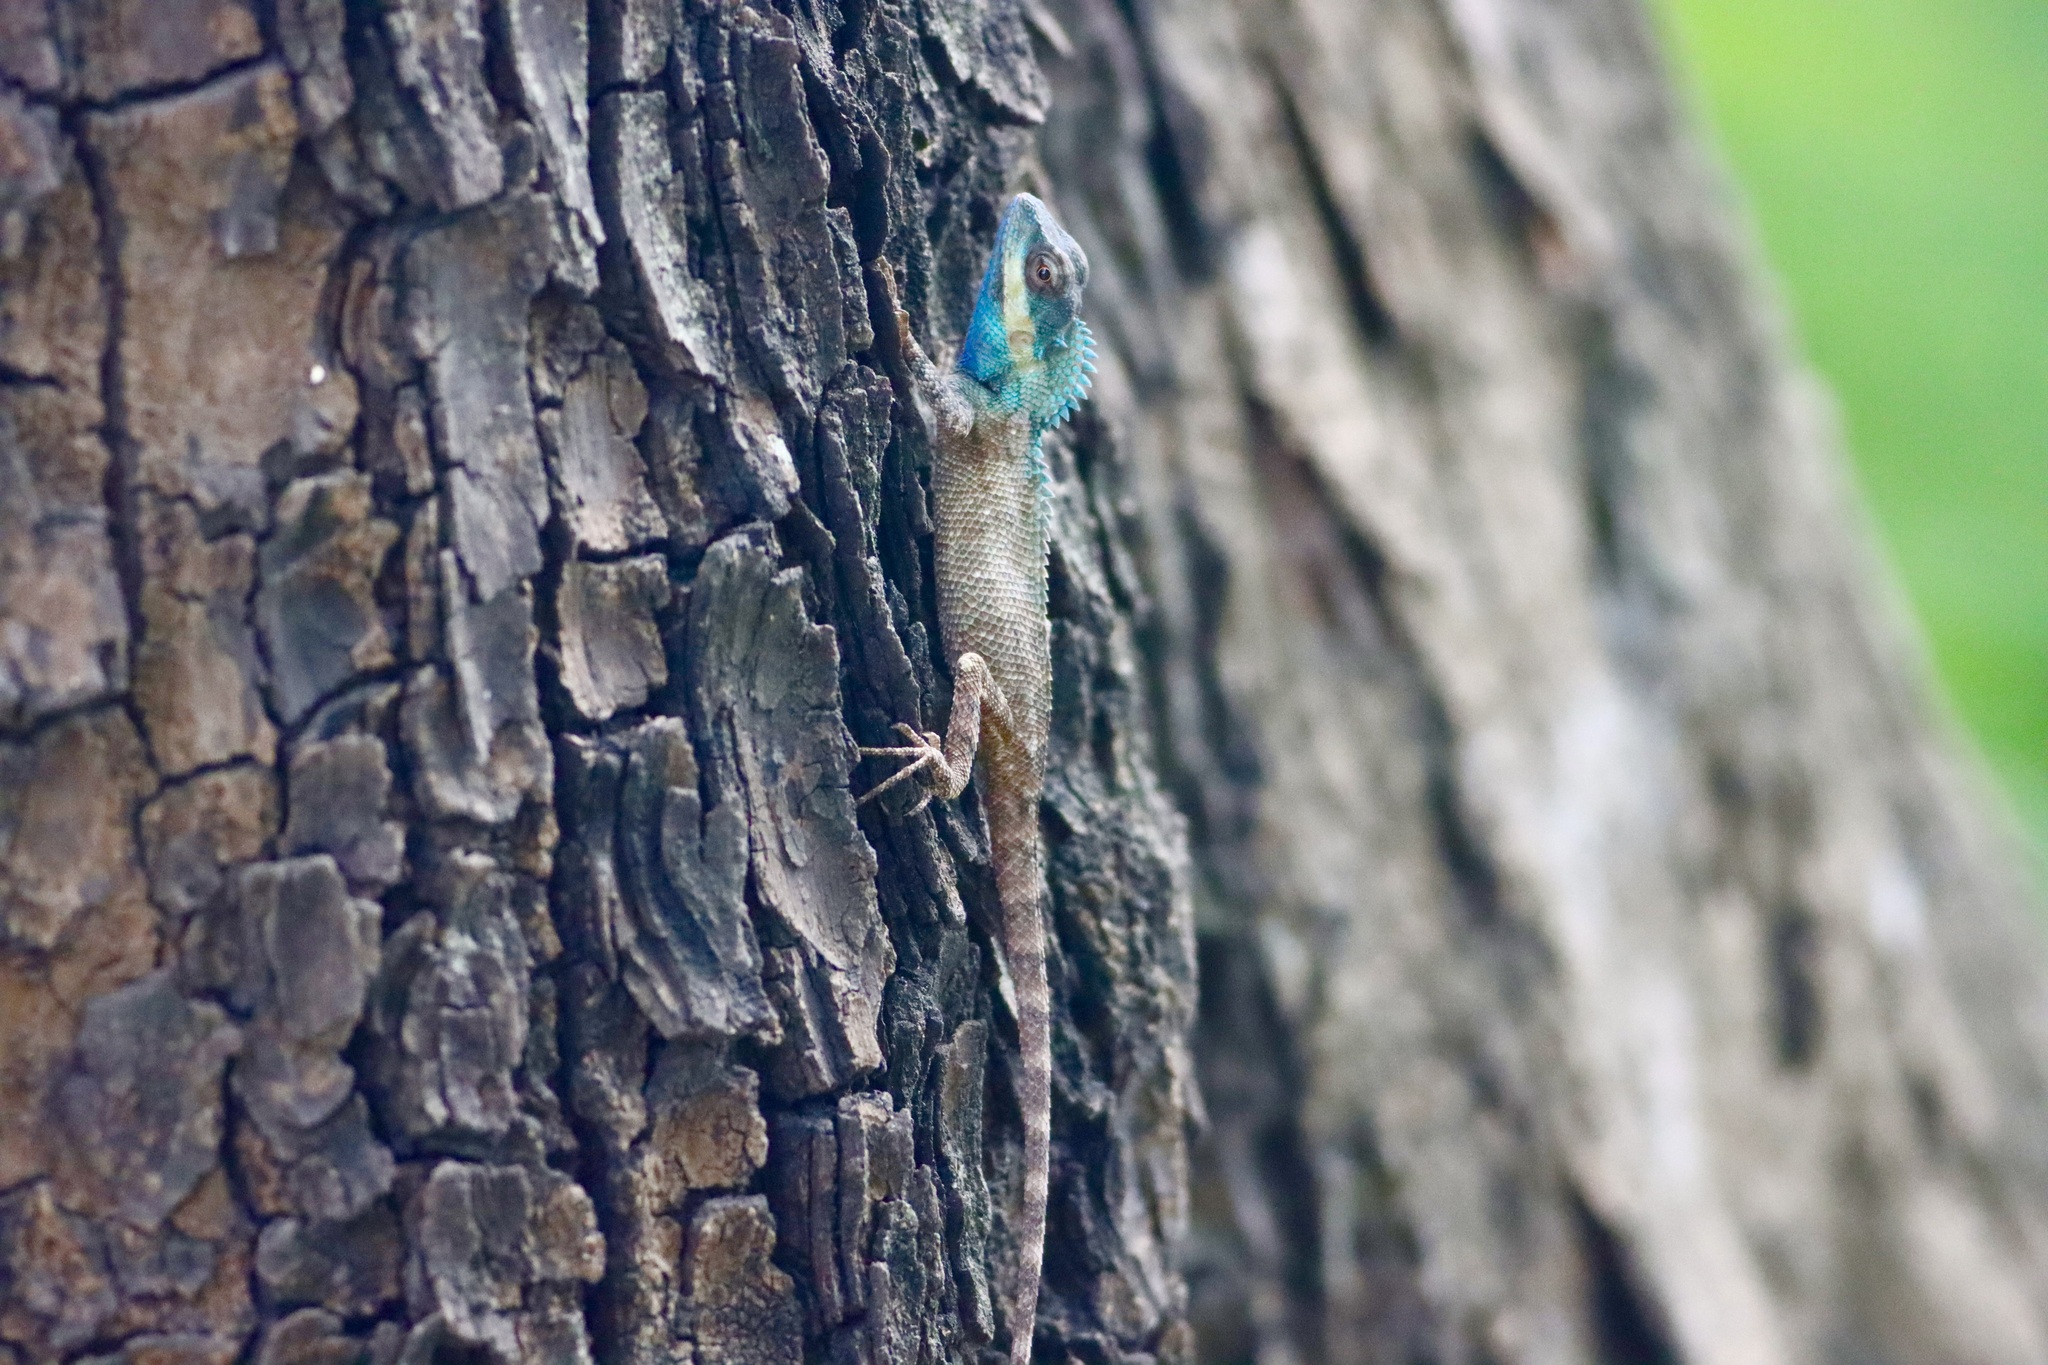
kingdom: Animalia
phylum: Chordata
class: Squamata
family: Agamidae
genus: Calotes
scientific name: Calotes bachae
